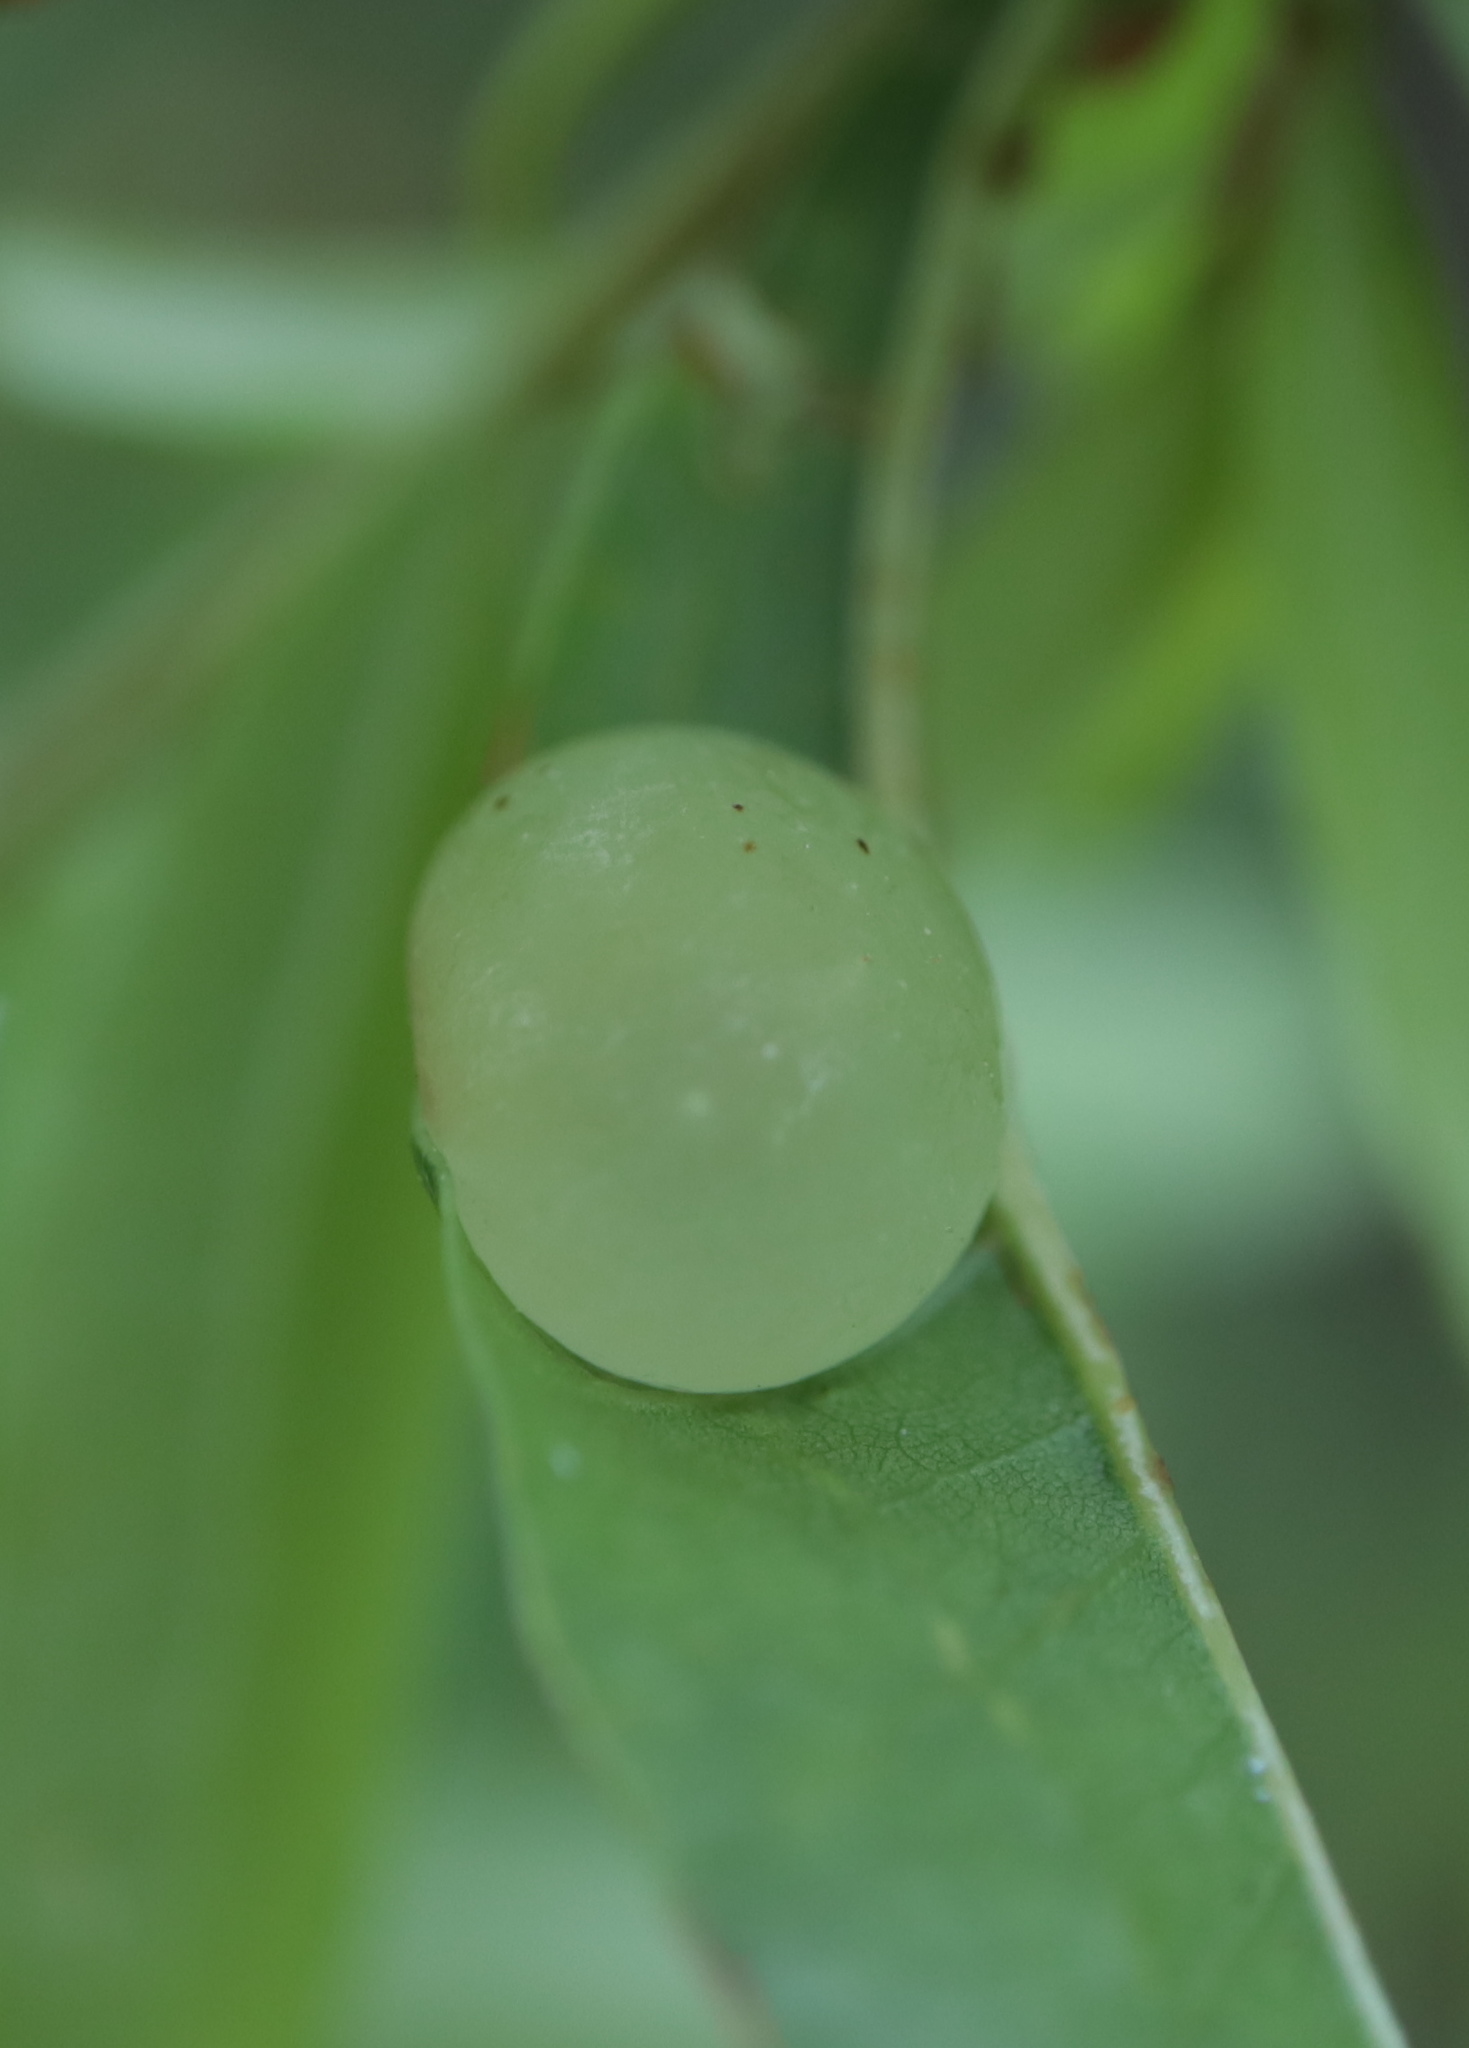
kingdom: Animalia
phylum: Arthropoda
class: Insecta
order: Hymenoptera
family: Cynipidae
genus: Amphibolips
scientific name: Amphibolips
